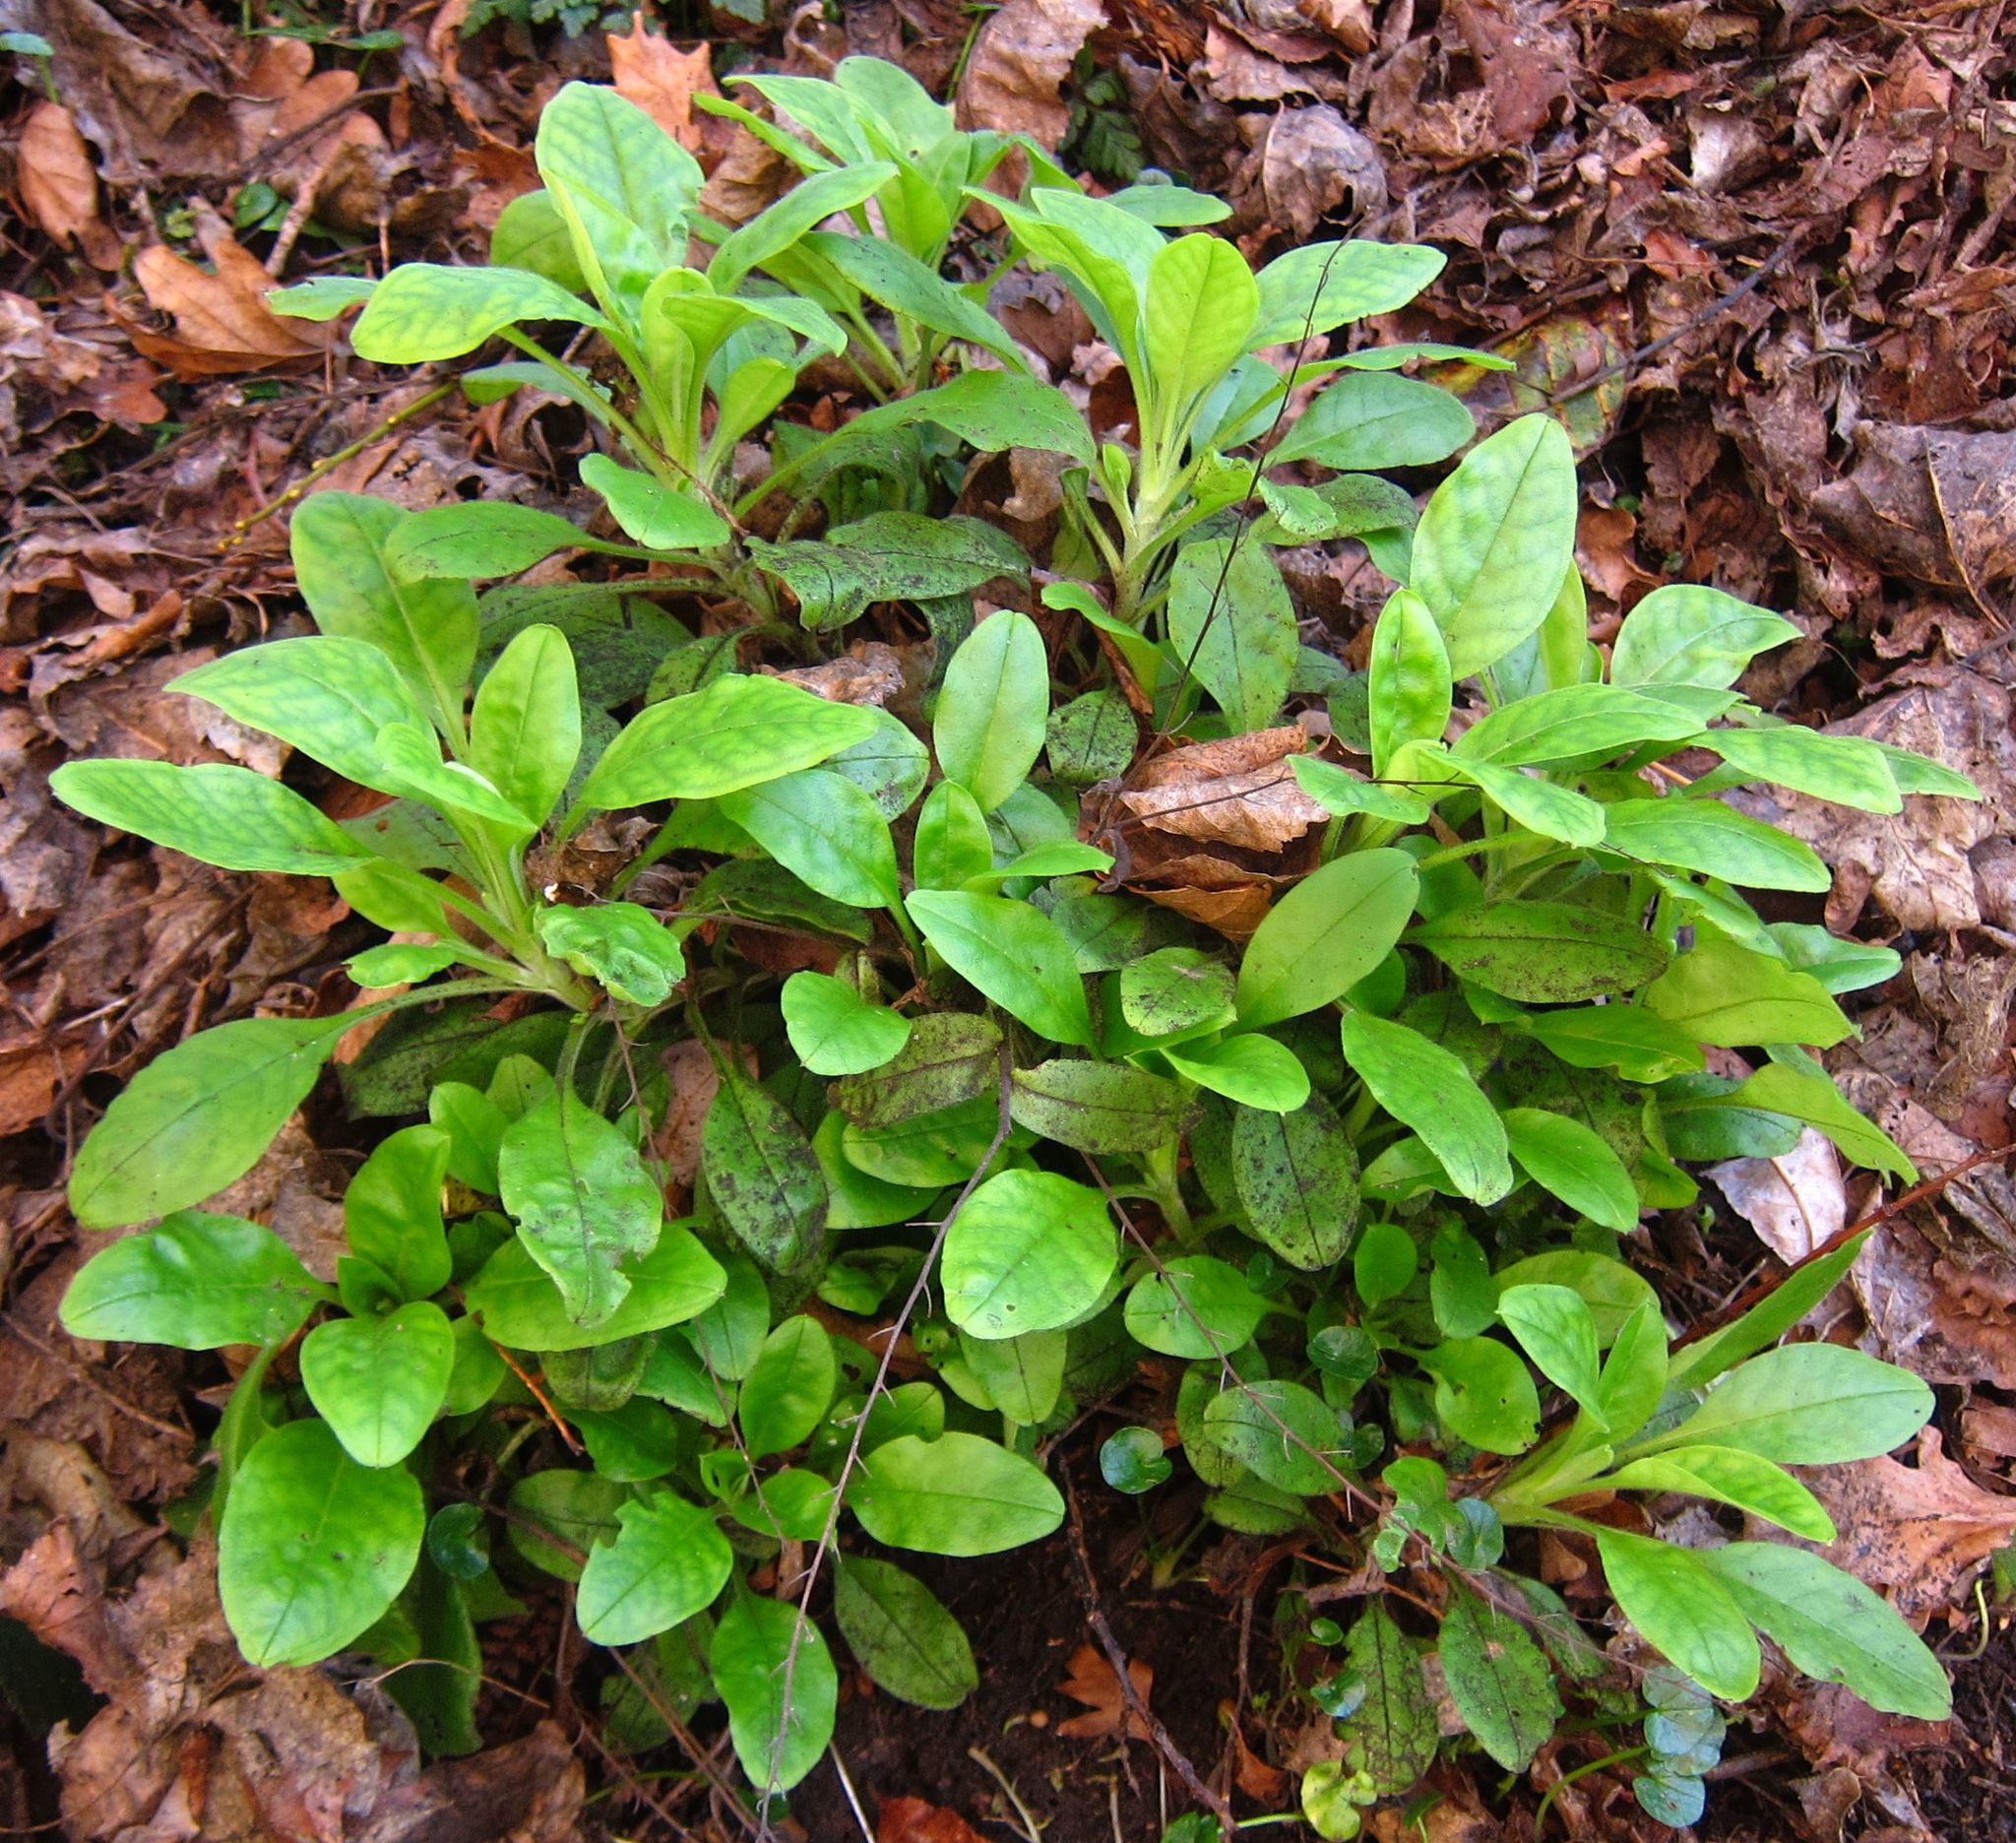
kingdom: Plantae
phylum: Tracheophyta
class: Magnoliopsida
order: Boraginales
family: Boraginaceae
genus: Myosotis
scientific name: Myosotis sylvatica
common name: Wood forget-me-not
